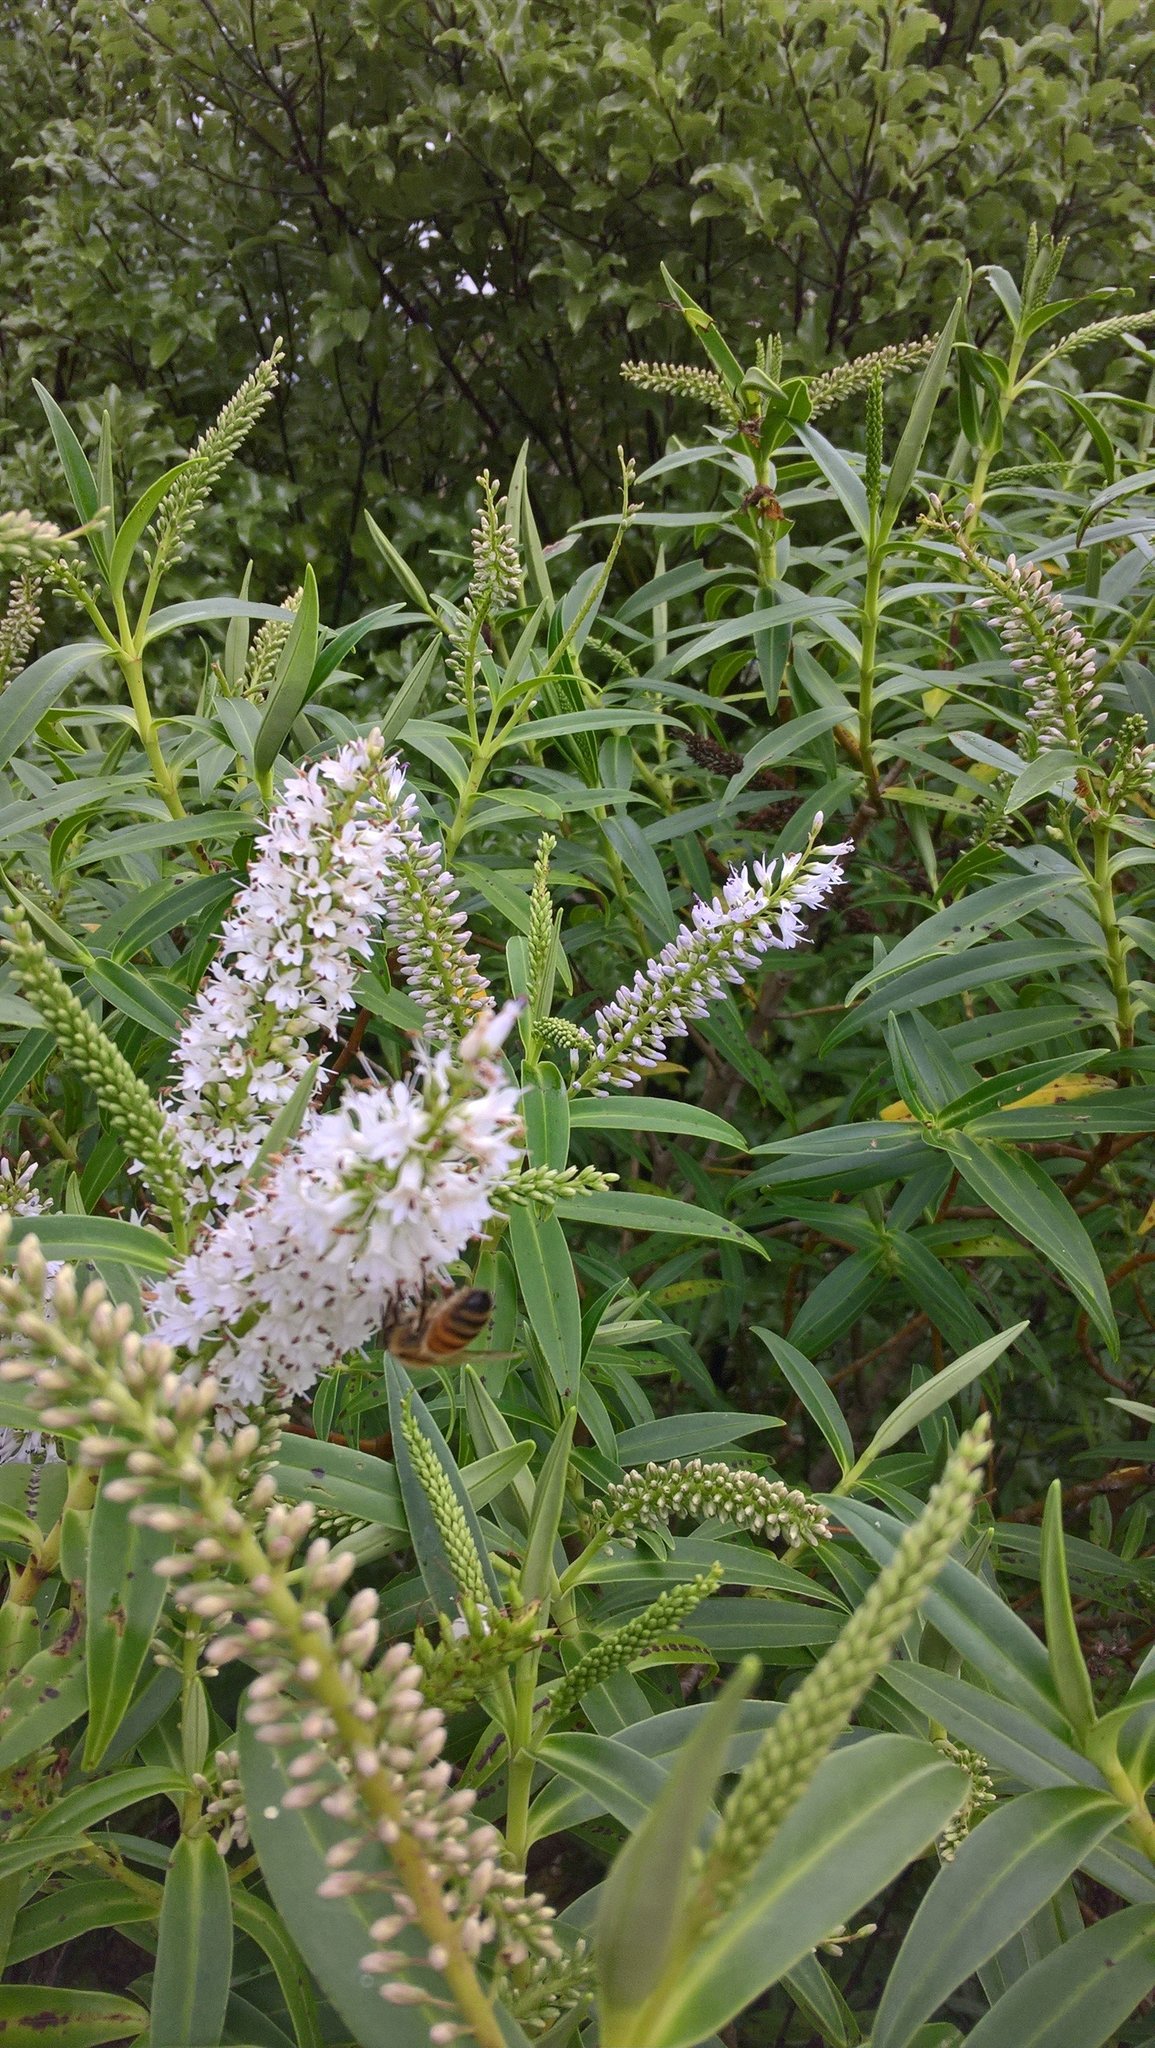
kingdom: Animalia
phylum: Arthropoda
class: Insecta
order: Hymenoptera
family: Apidae
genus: Apis
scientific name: Apis mellifera
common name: Honey bee
